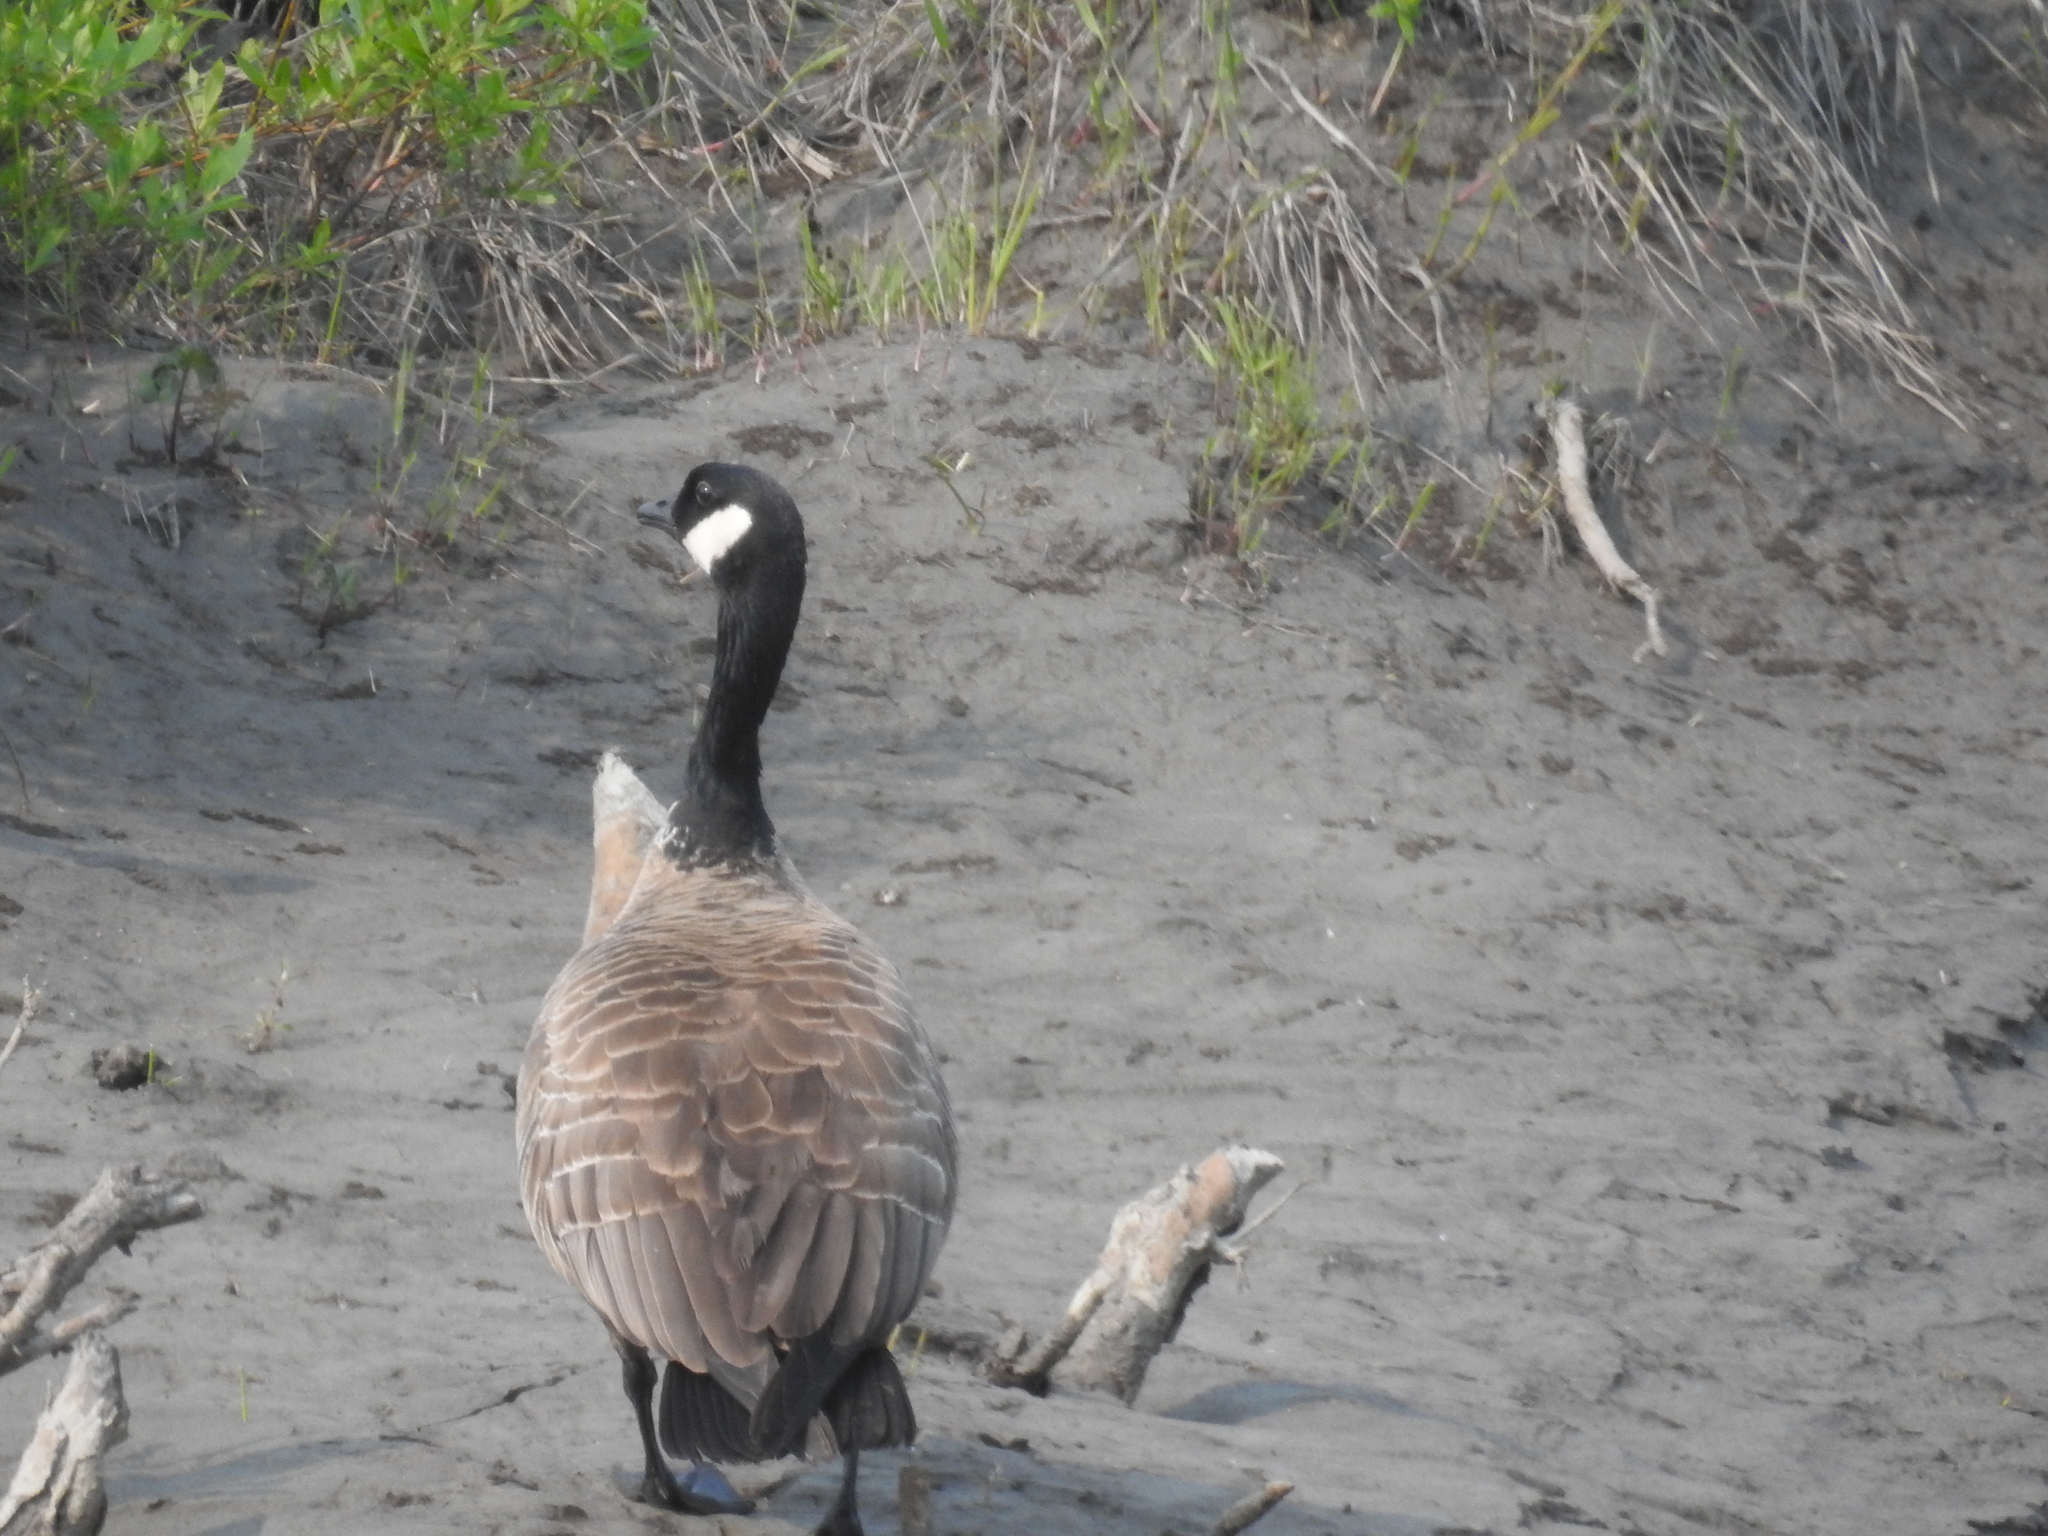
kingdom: Animalia
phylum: Chordata
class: Aves
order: Anseriformes
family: Anatidae
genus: Branta
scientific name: Branta hutchinsii
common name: Cackling goose
